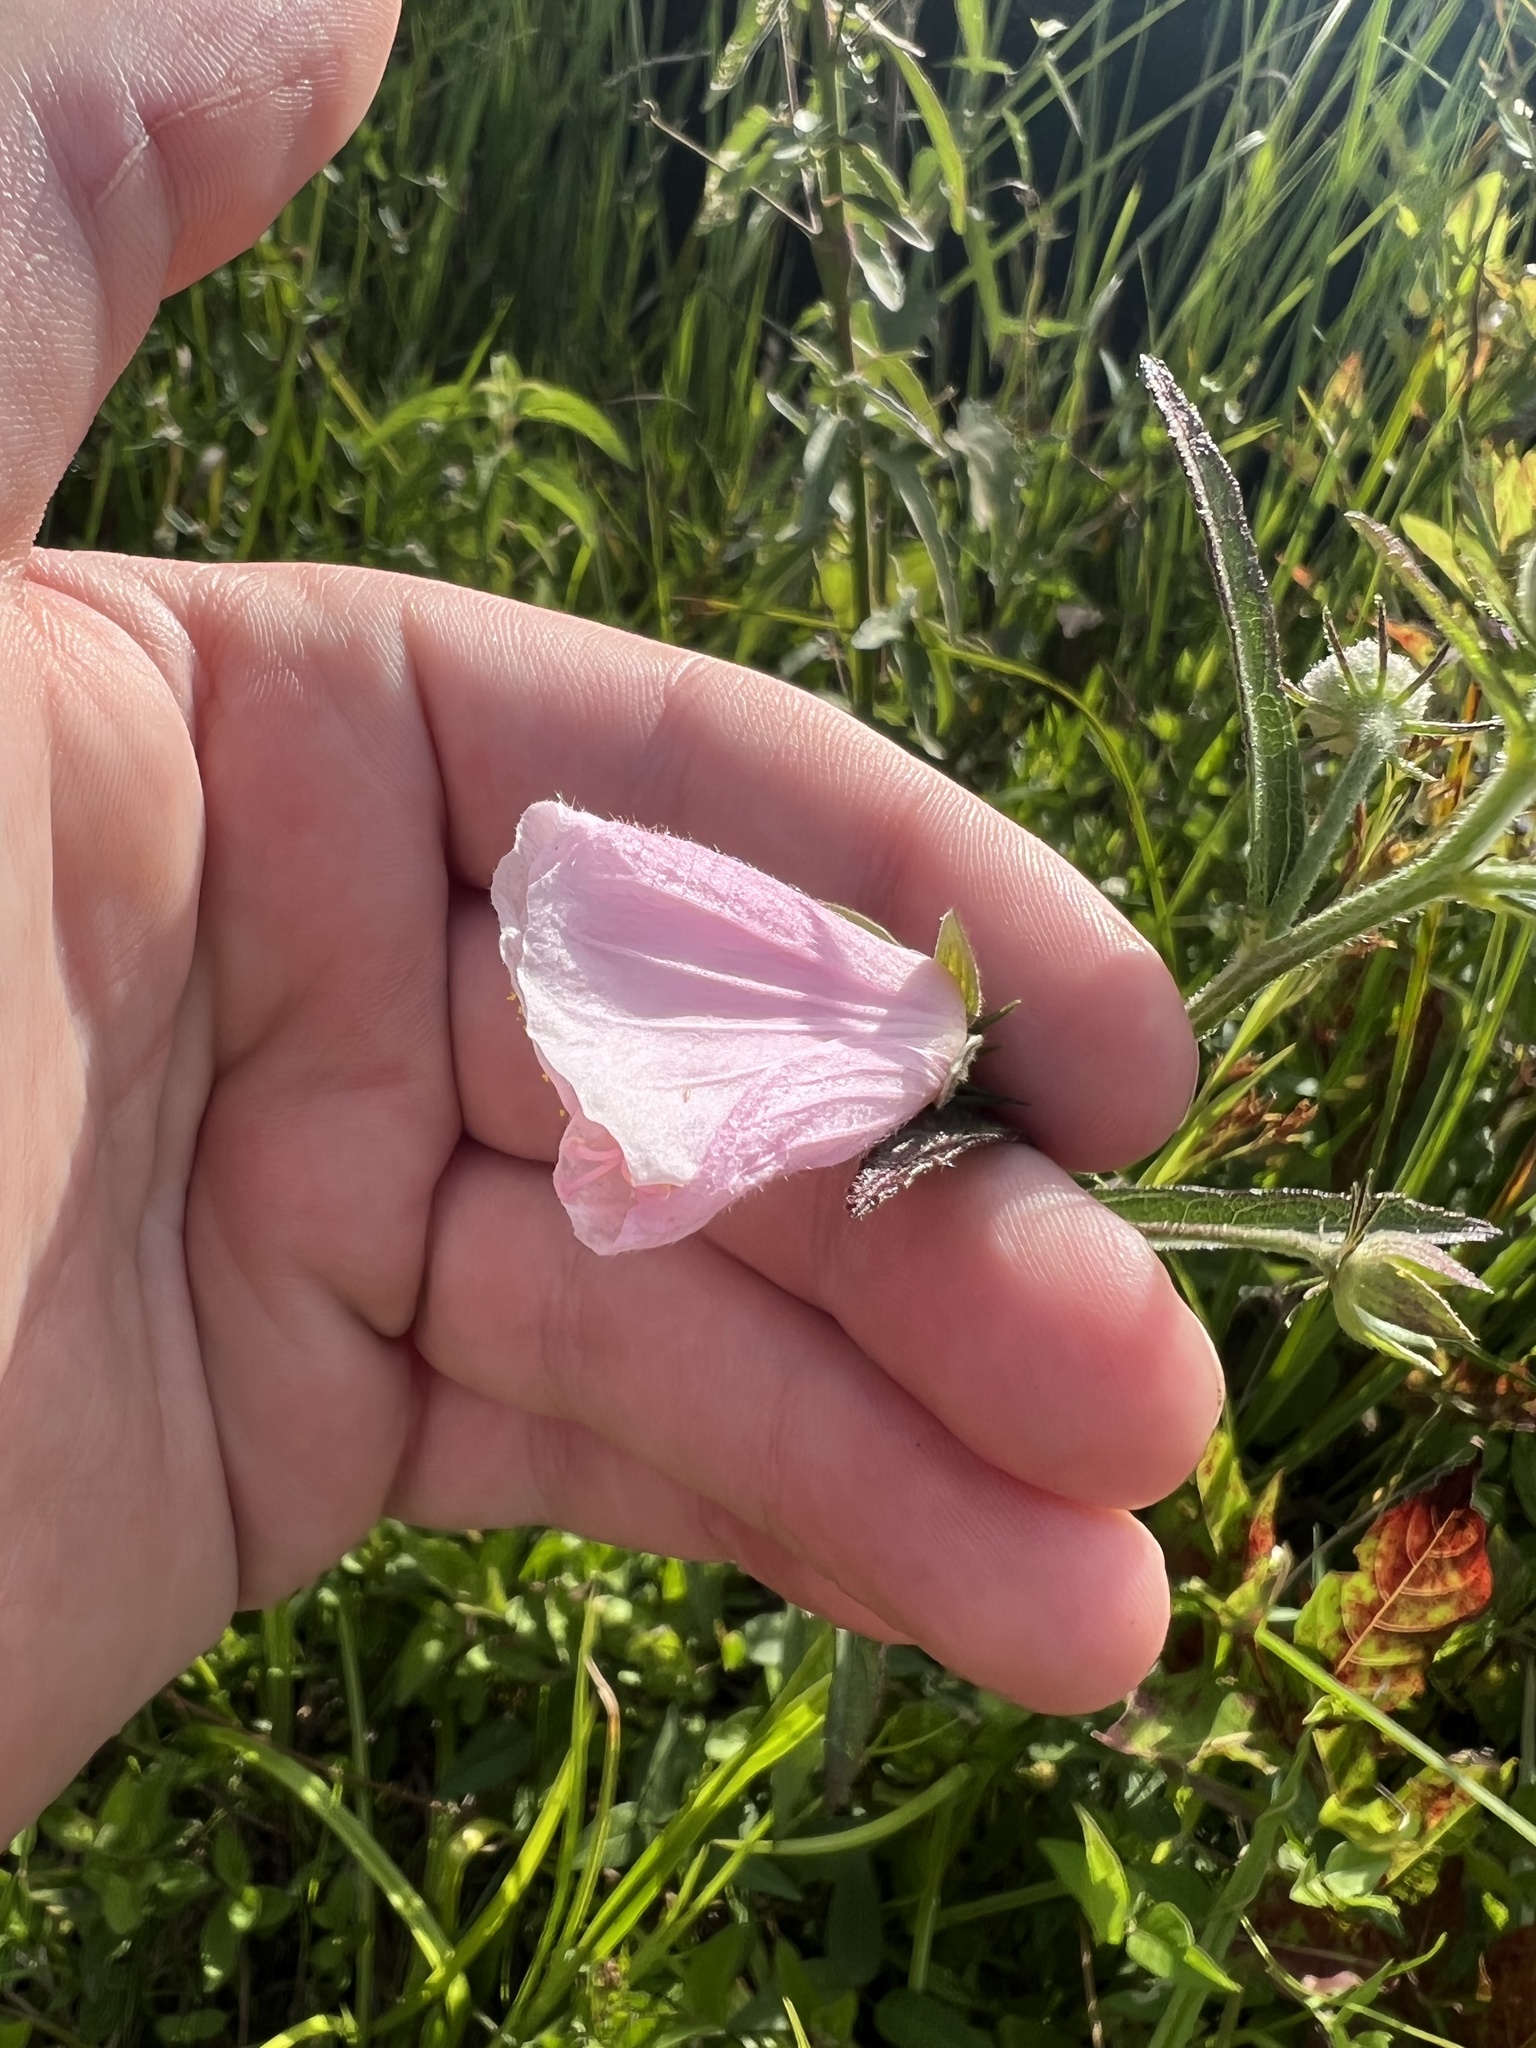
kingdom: Plantae
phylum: Tracheophyta
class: Magnoliopsida
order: Malvales
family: Malvaceae
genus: Kosteletzkya
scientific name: Kosteletzkya pentacarpos
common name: Virginia saltmarsh mallow
